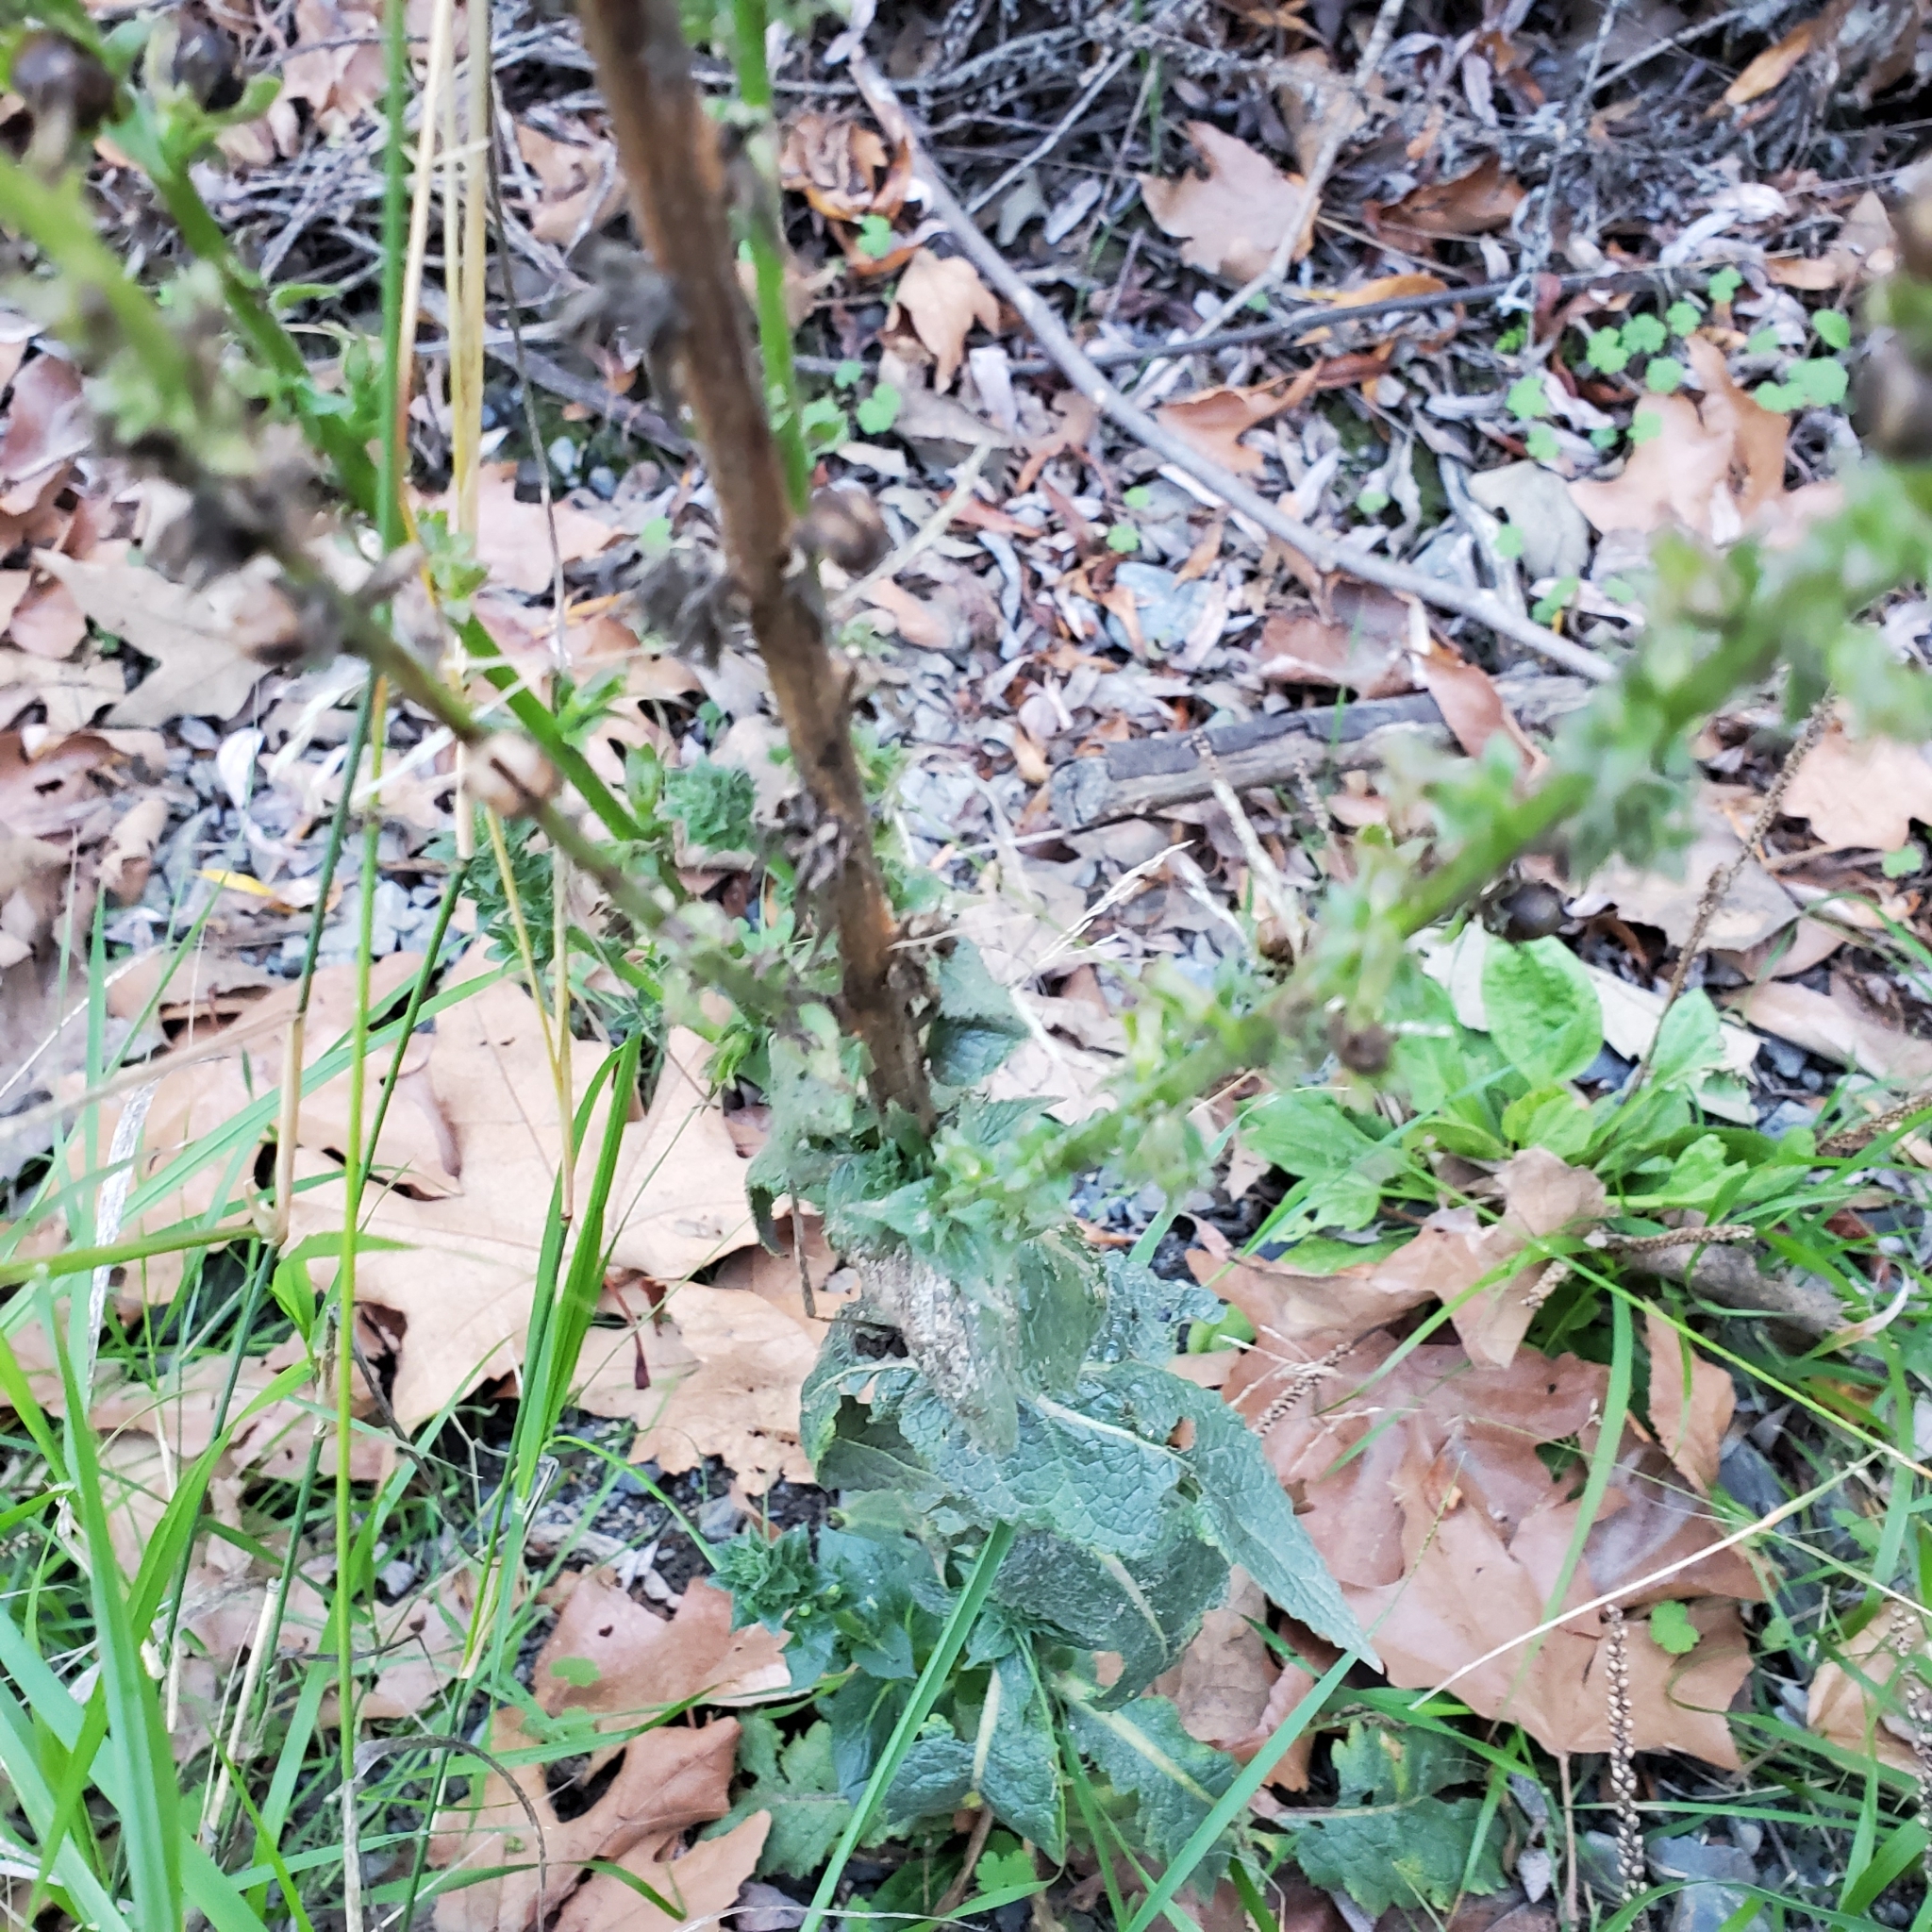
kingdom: Plantae
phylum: Tracheophyta
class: Magnoliopsida
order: Lamiales
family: Scrophulariaceae
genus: Verbascum
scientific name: Verbascum virgatum
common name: Twiggy mullein
